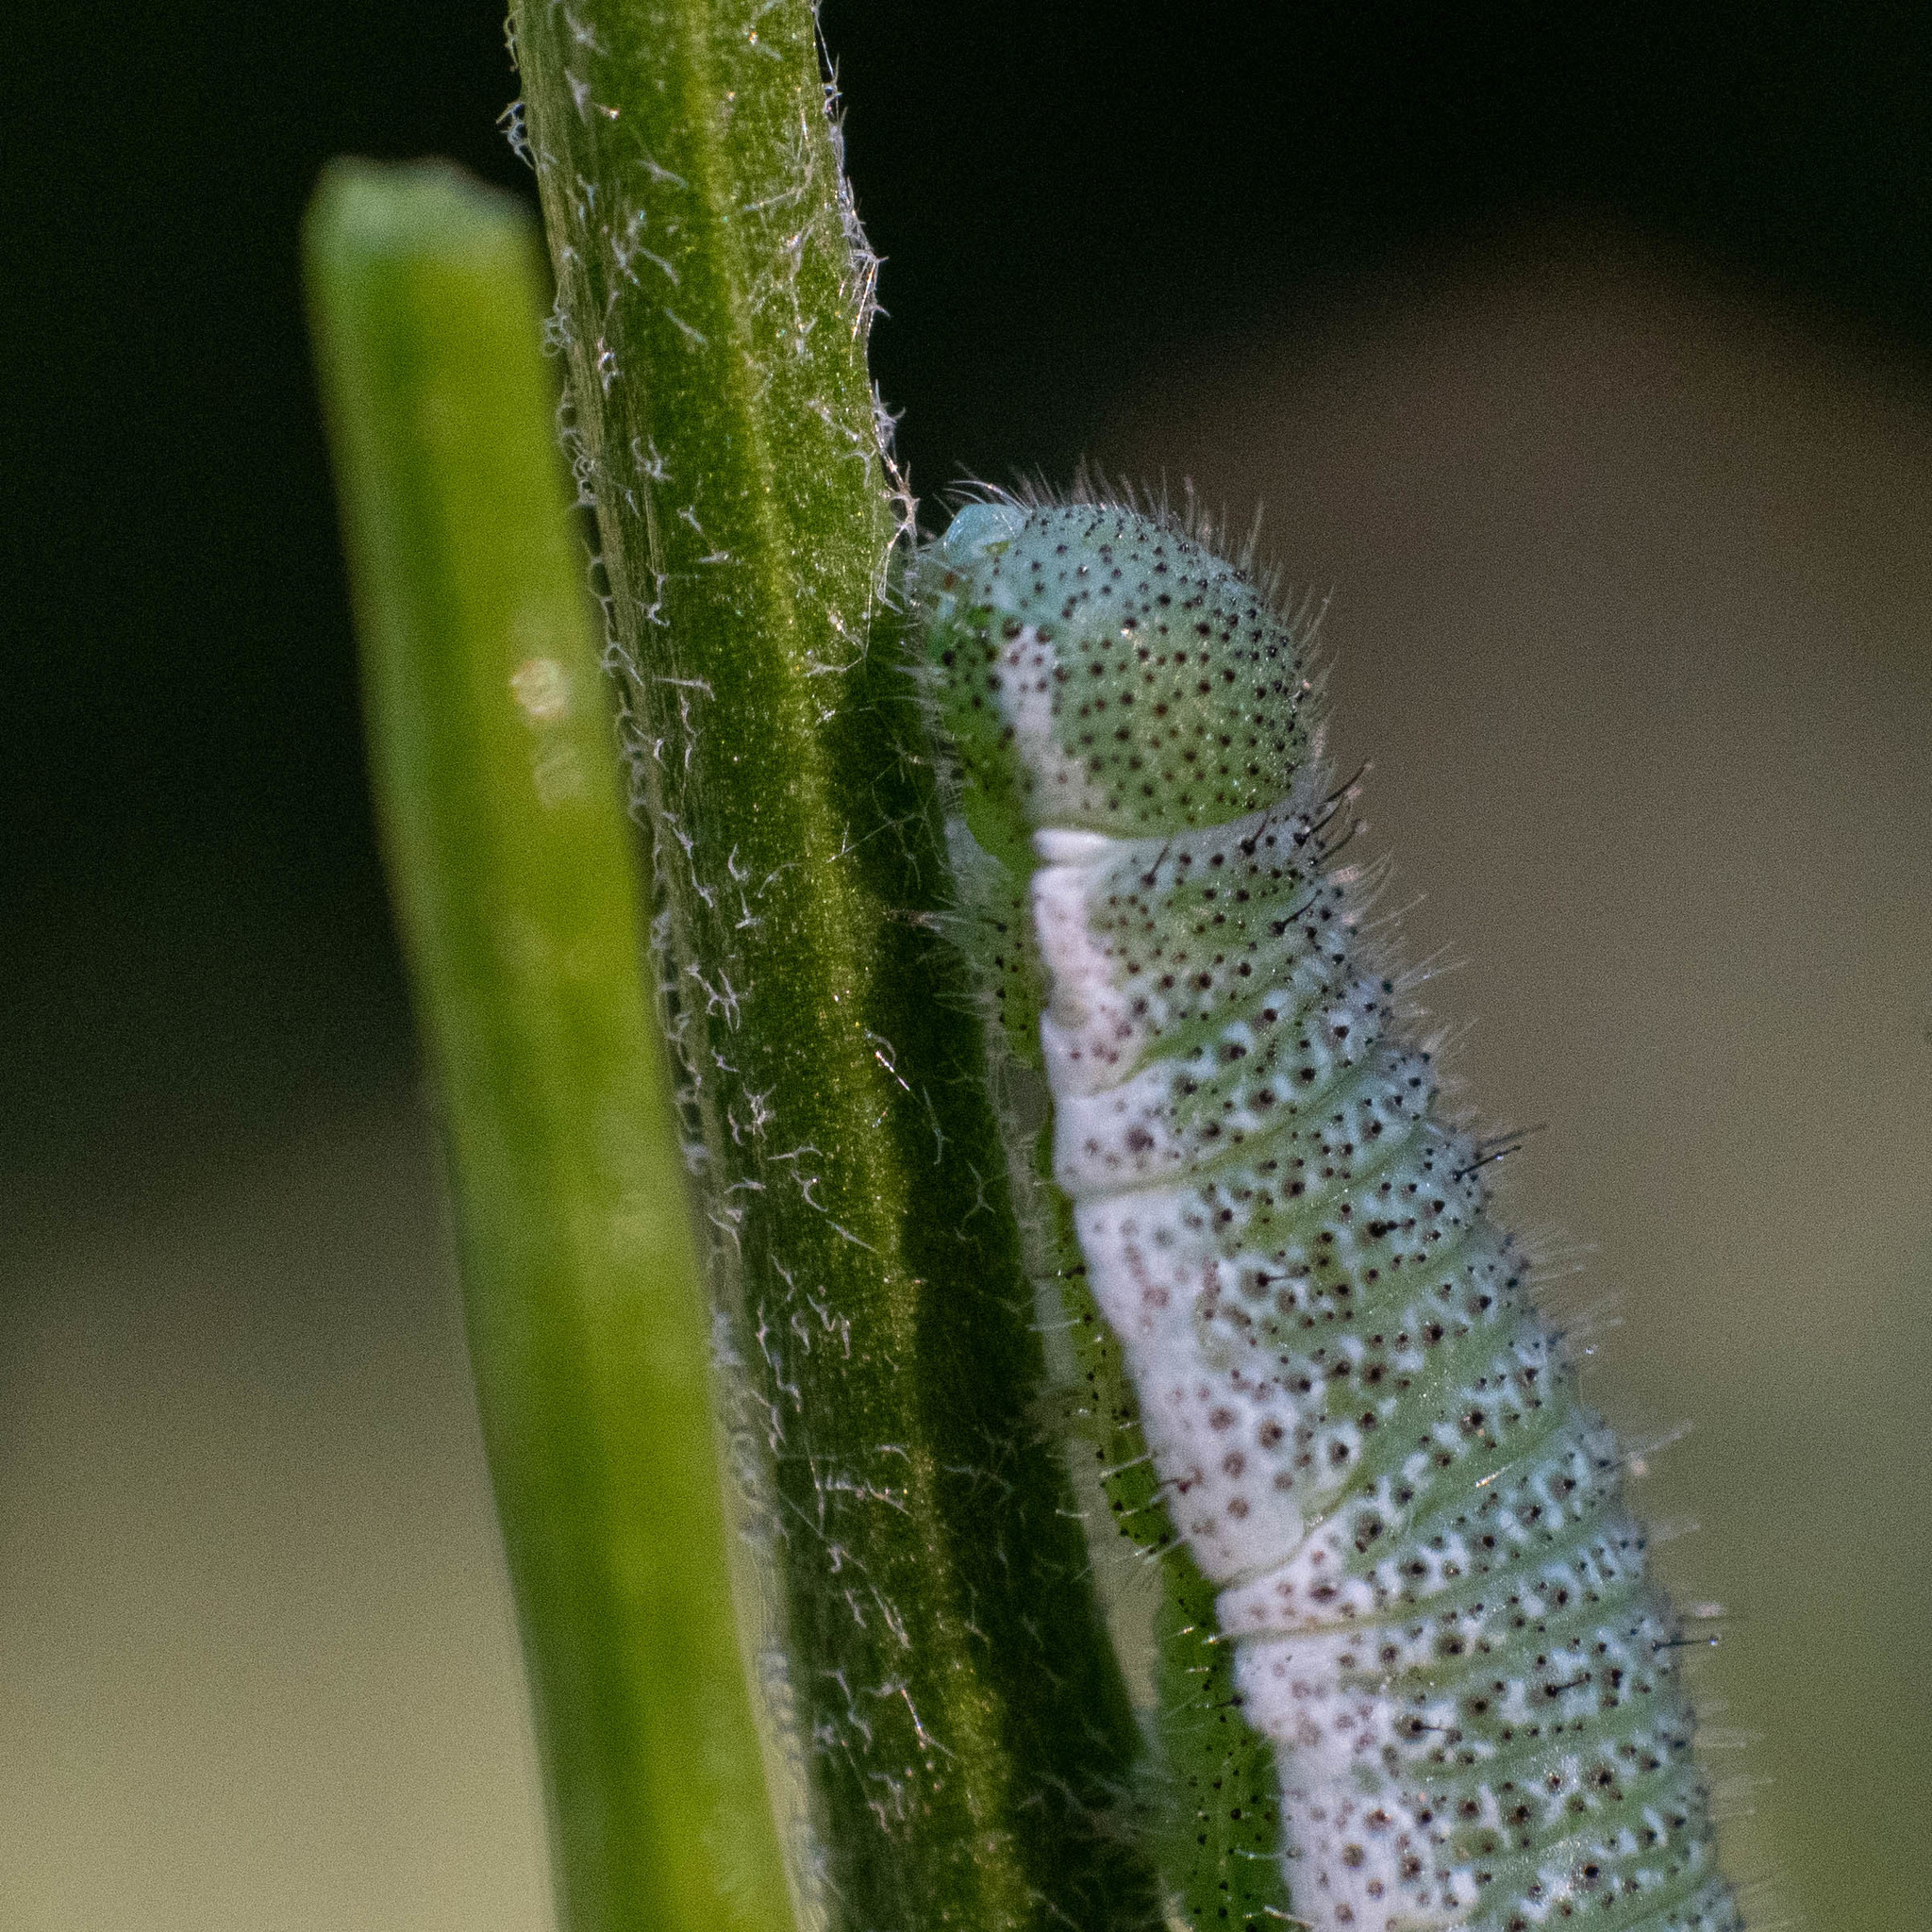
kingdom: Animalia
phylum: Arthropoda
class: Insecta
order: Lepidoptera
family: Pieridae
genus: Anthocharis
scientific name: Anthocharis cardamines
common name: Orange-tip
